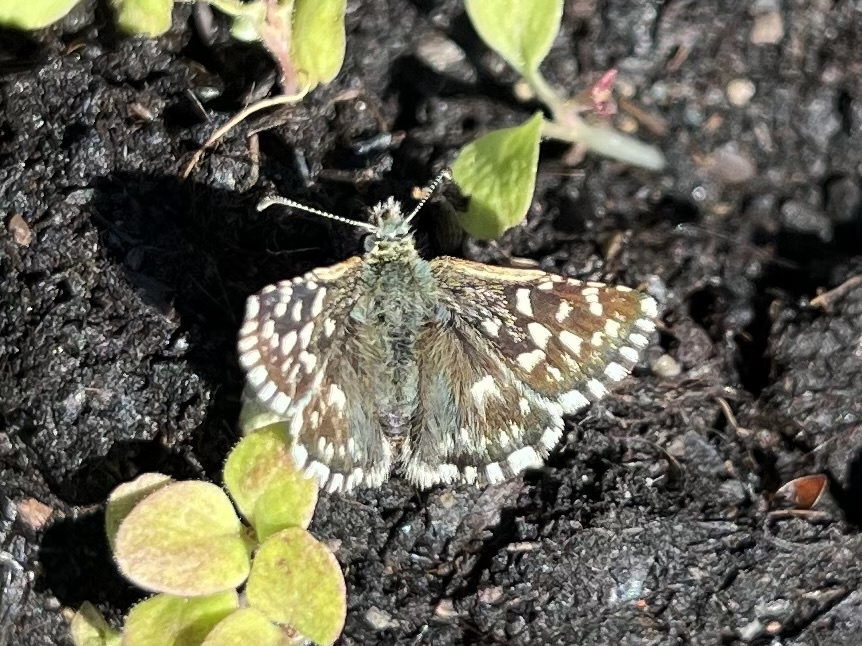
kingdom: Animalia
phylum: Arthropoda
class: Insecta
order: Lepidoptera
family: Hesperiidae
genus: Pyrgus
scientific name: Pyrgus malvae
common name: Grizzled skipper
